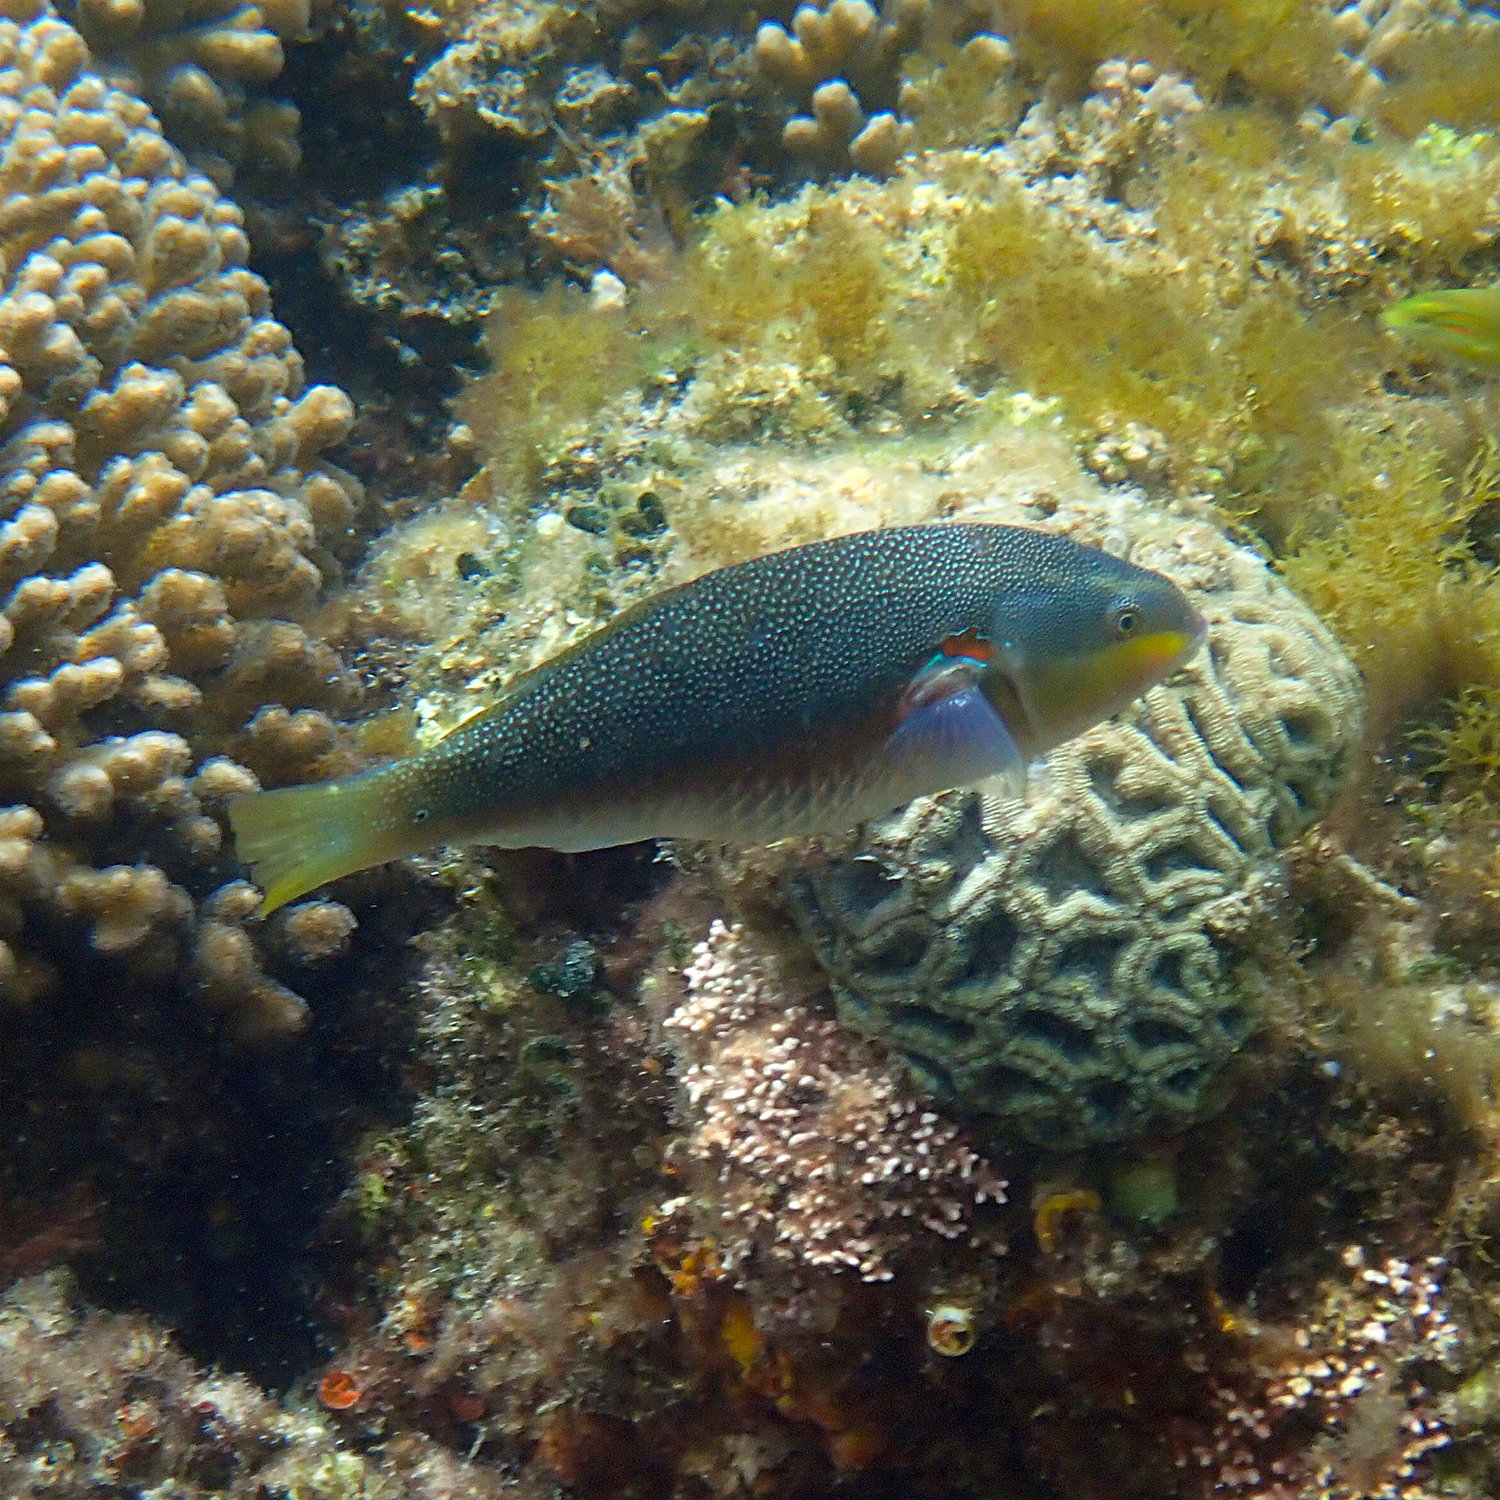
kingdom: Animalia
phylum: Chordata
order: Perciformes
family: Labridae
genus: Stethojulis
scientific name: Stethojulis bandanensis
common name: Red shoulder wrasse
